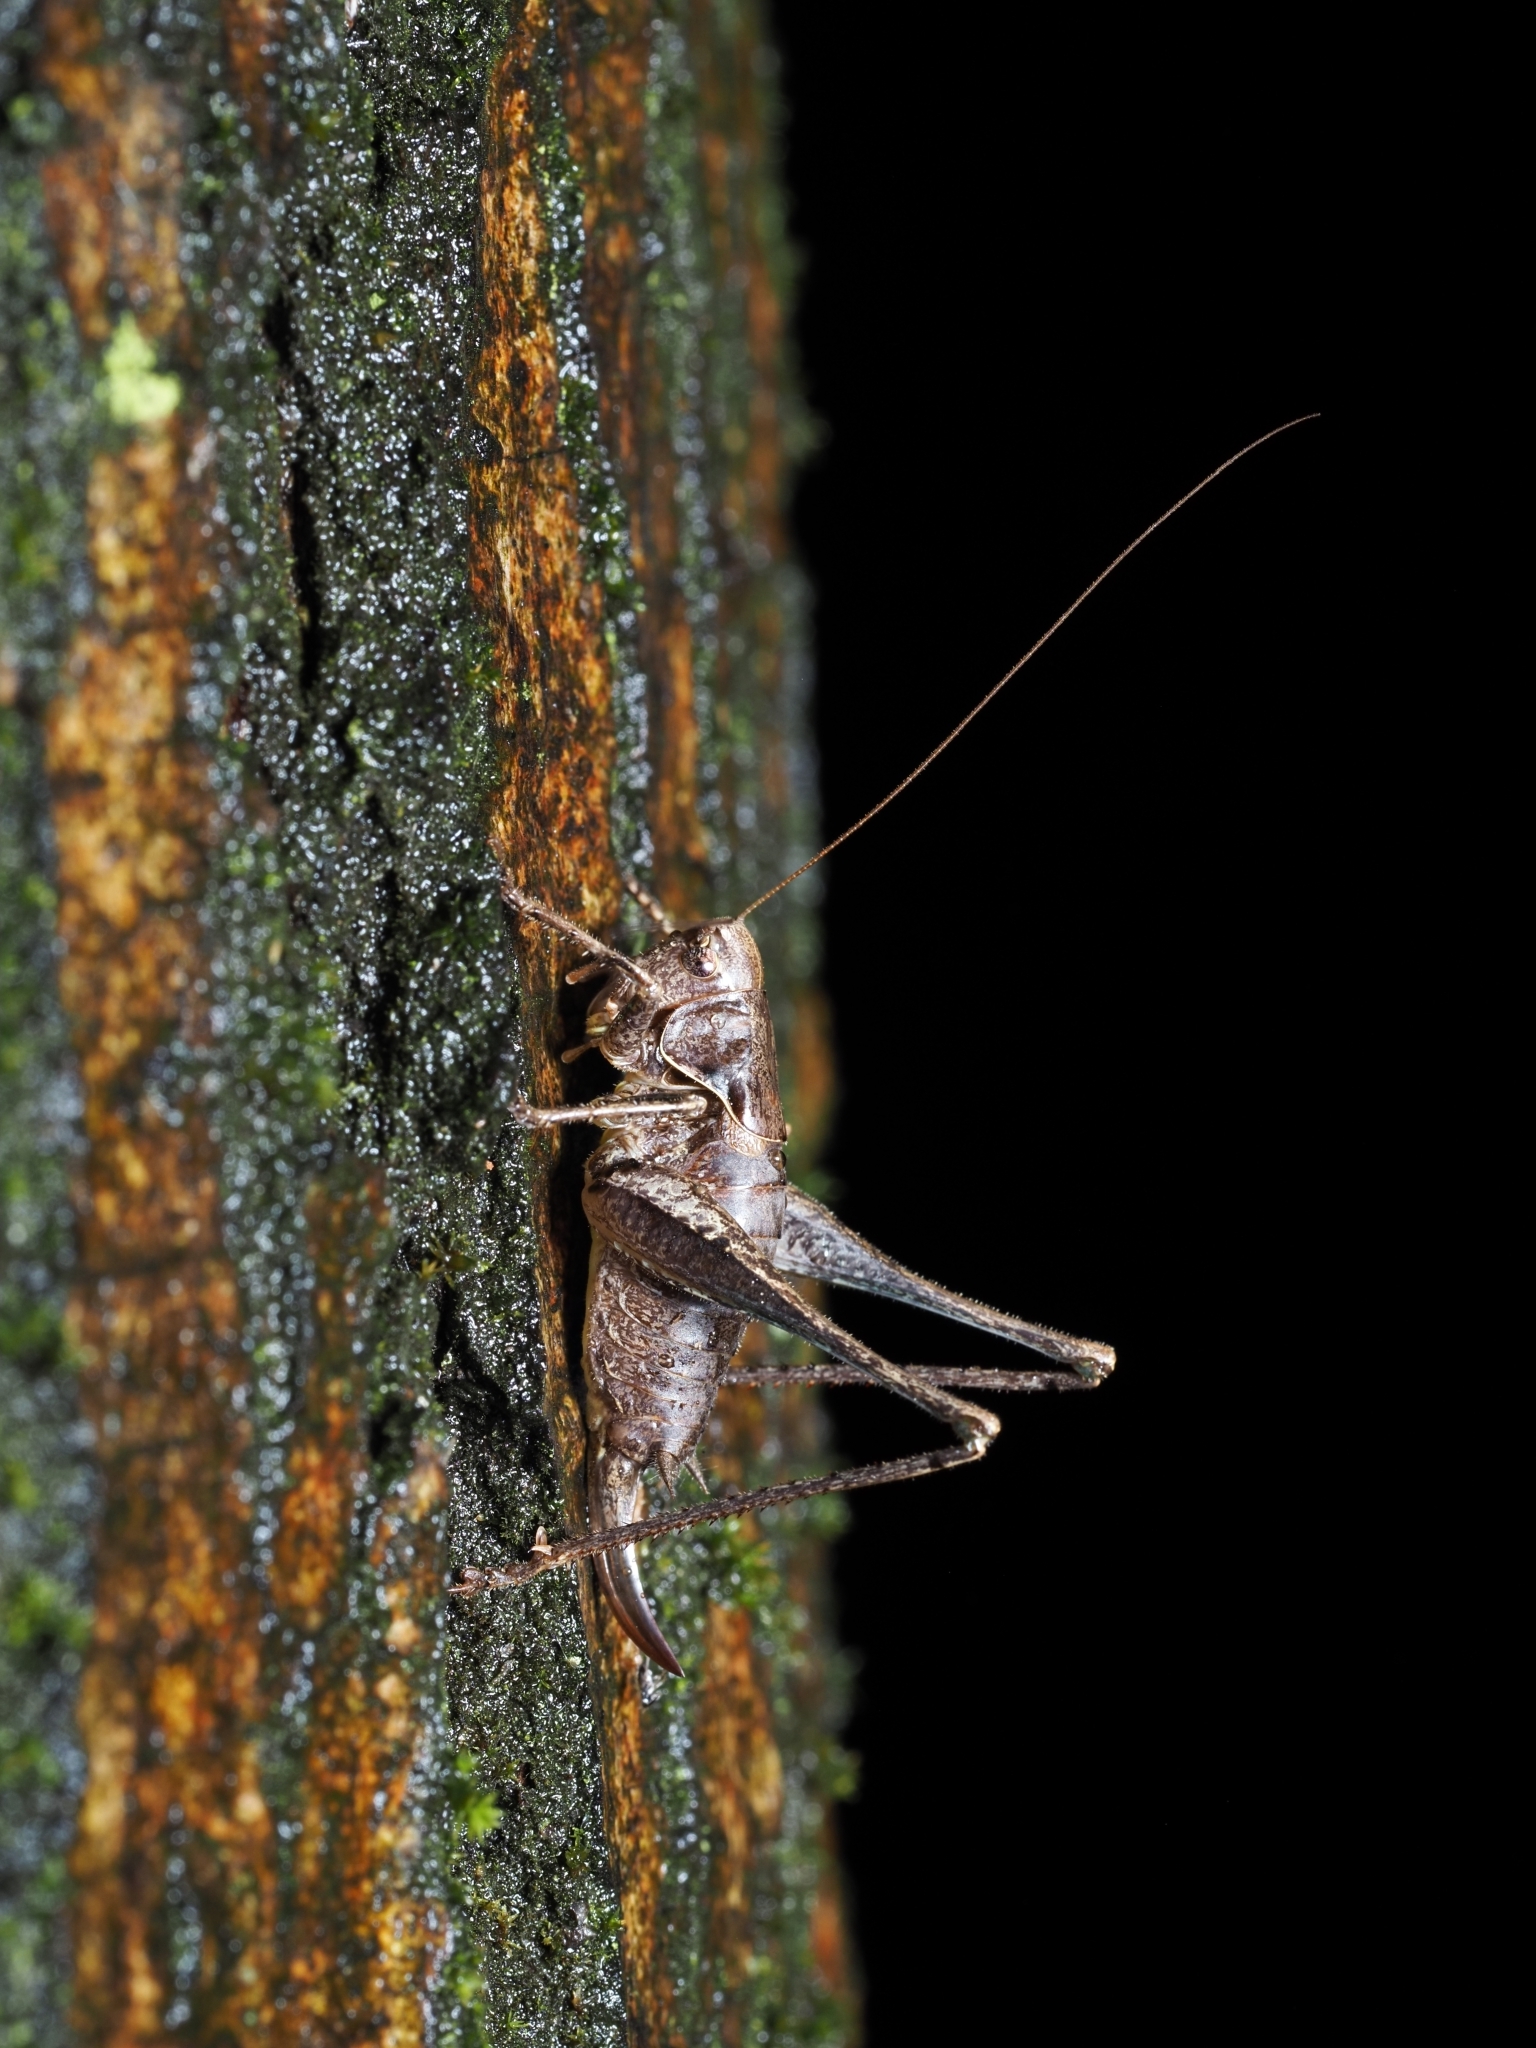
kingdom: Animalia
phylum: Arthropoda
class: Insecta
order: Orthoptera
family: Tettigoniidae
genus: Pholidoptera
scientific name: Pholidoptera griseoaptera
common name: Dark bush-cricket
